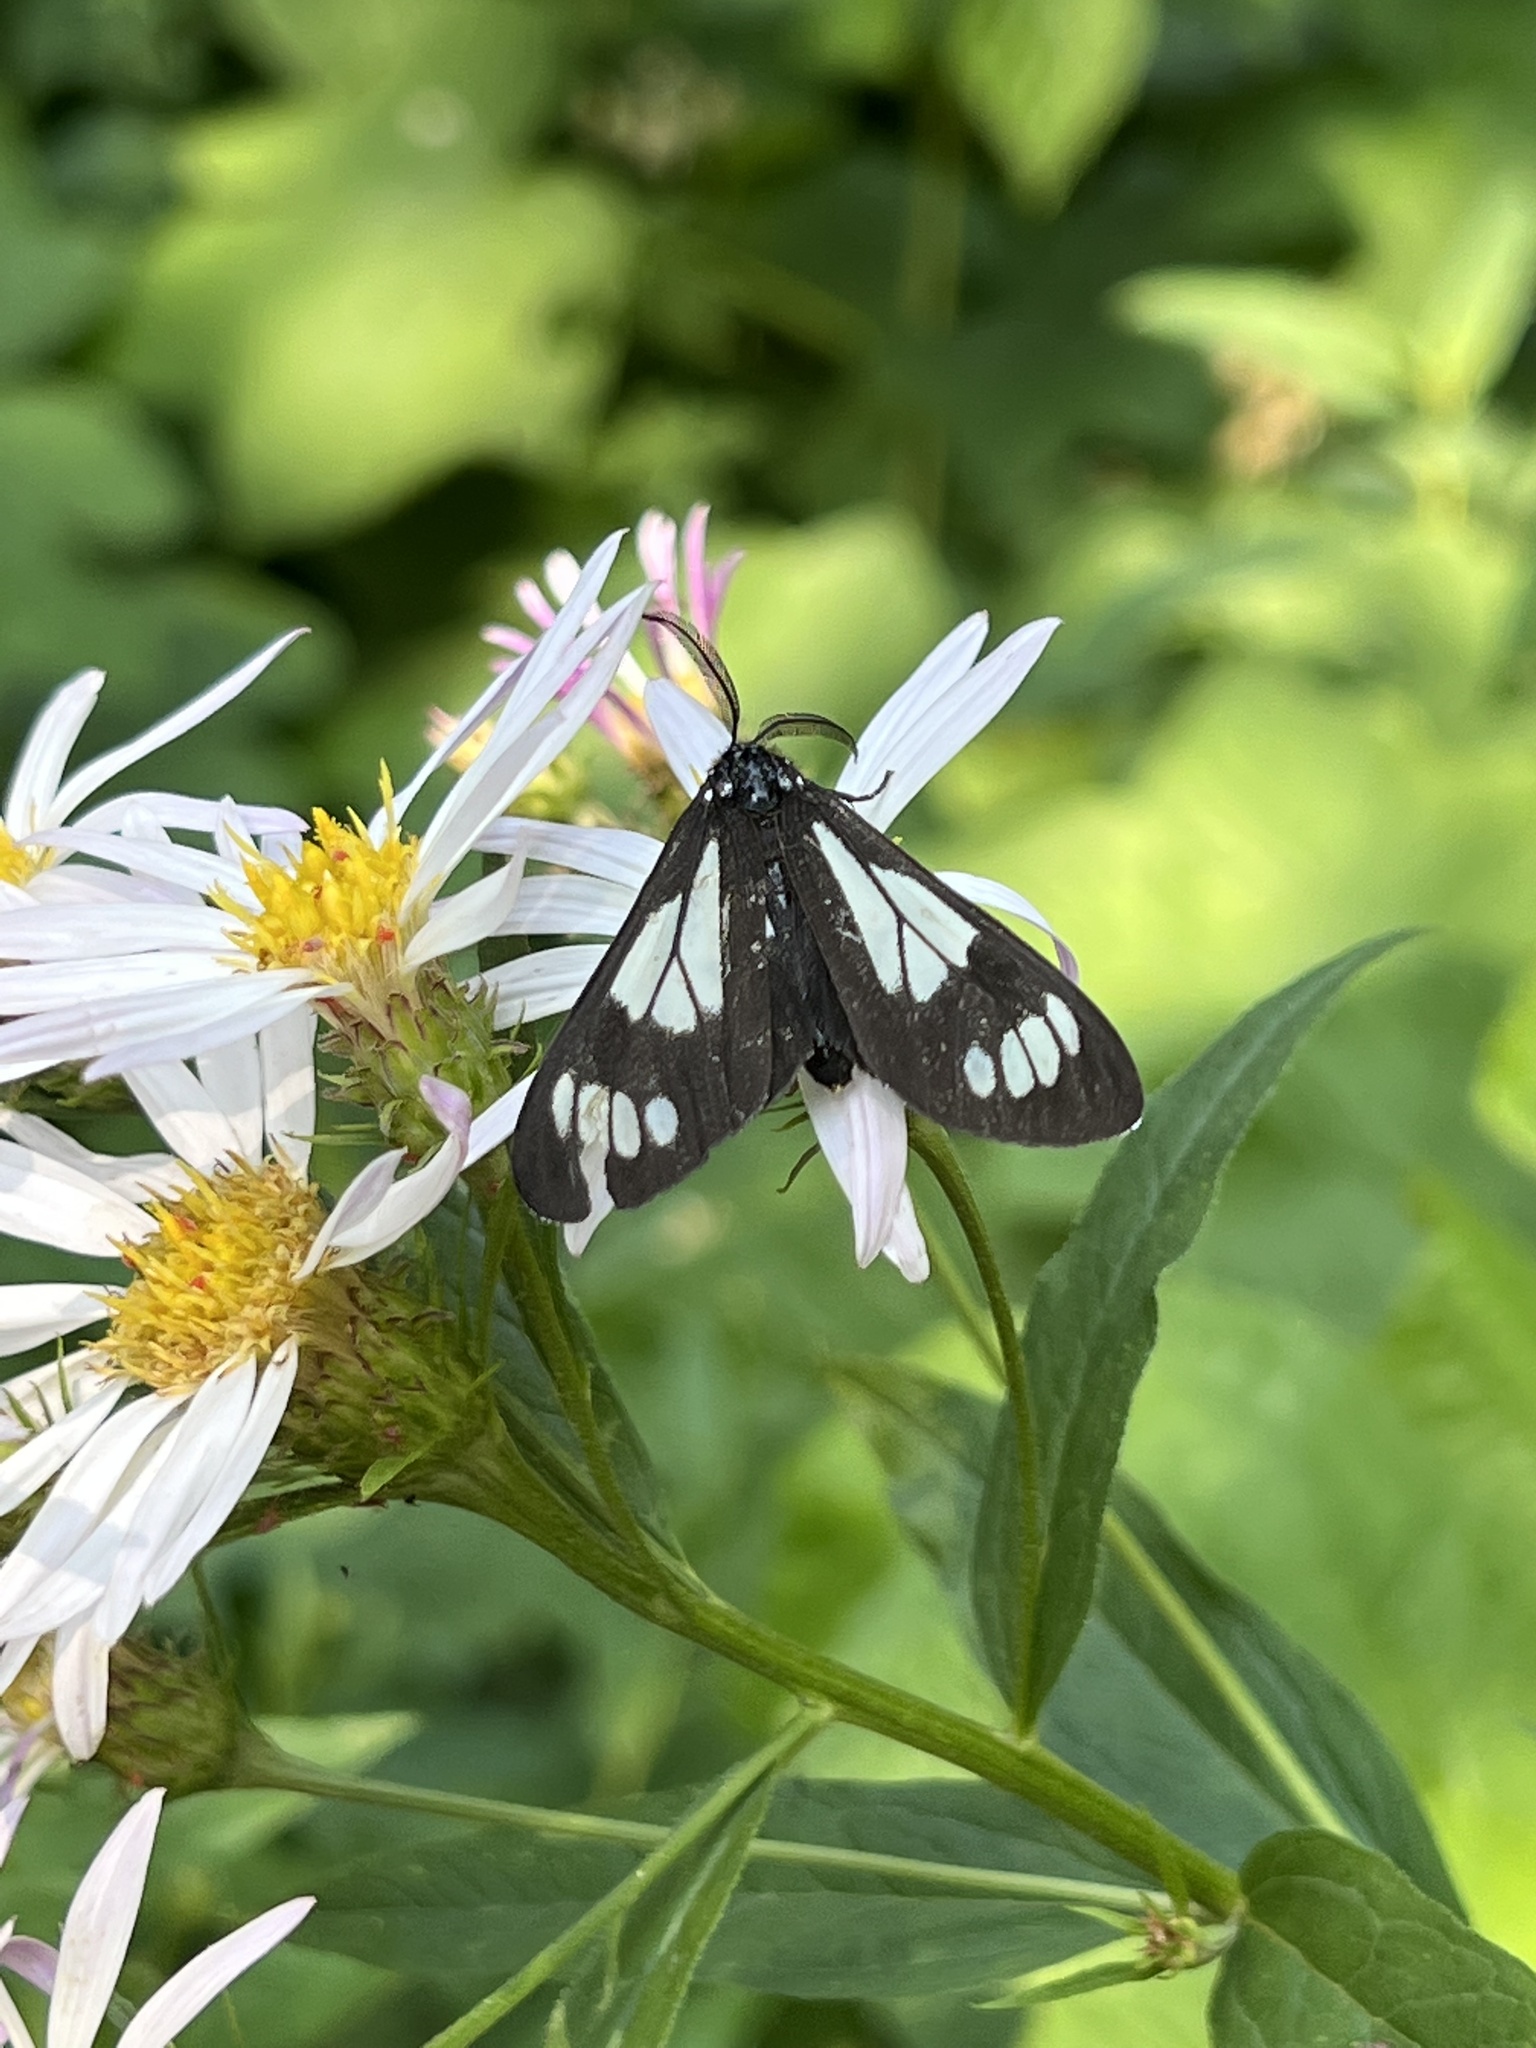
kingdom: Animalia
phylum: Arthropoda
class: Insecta
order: Lepidoptera
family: Erebidae
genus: Gnophaela
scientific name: Gnophaela vermiculata
